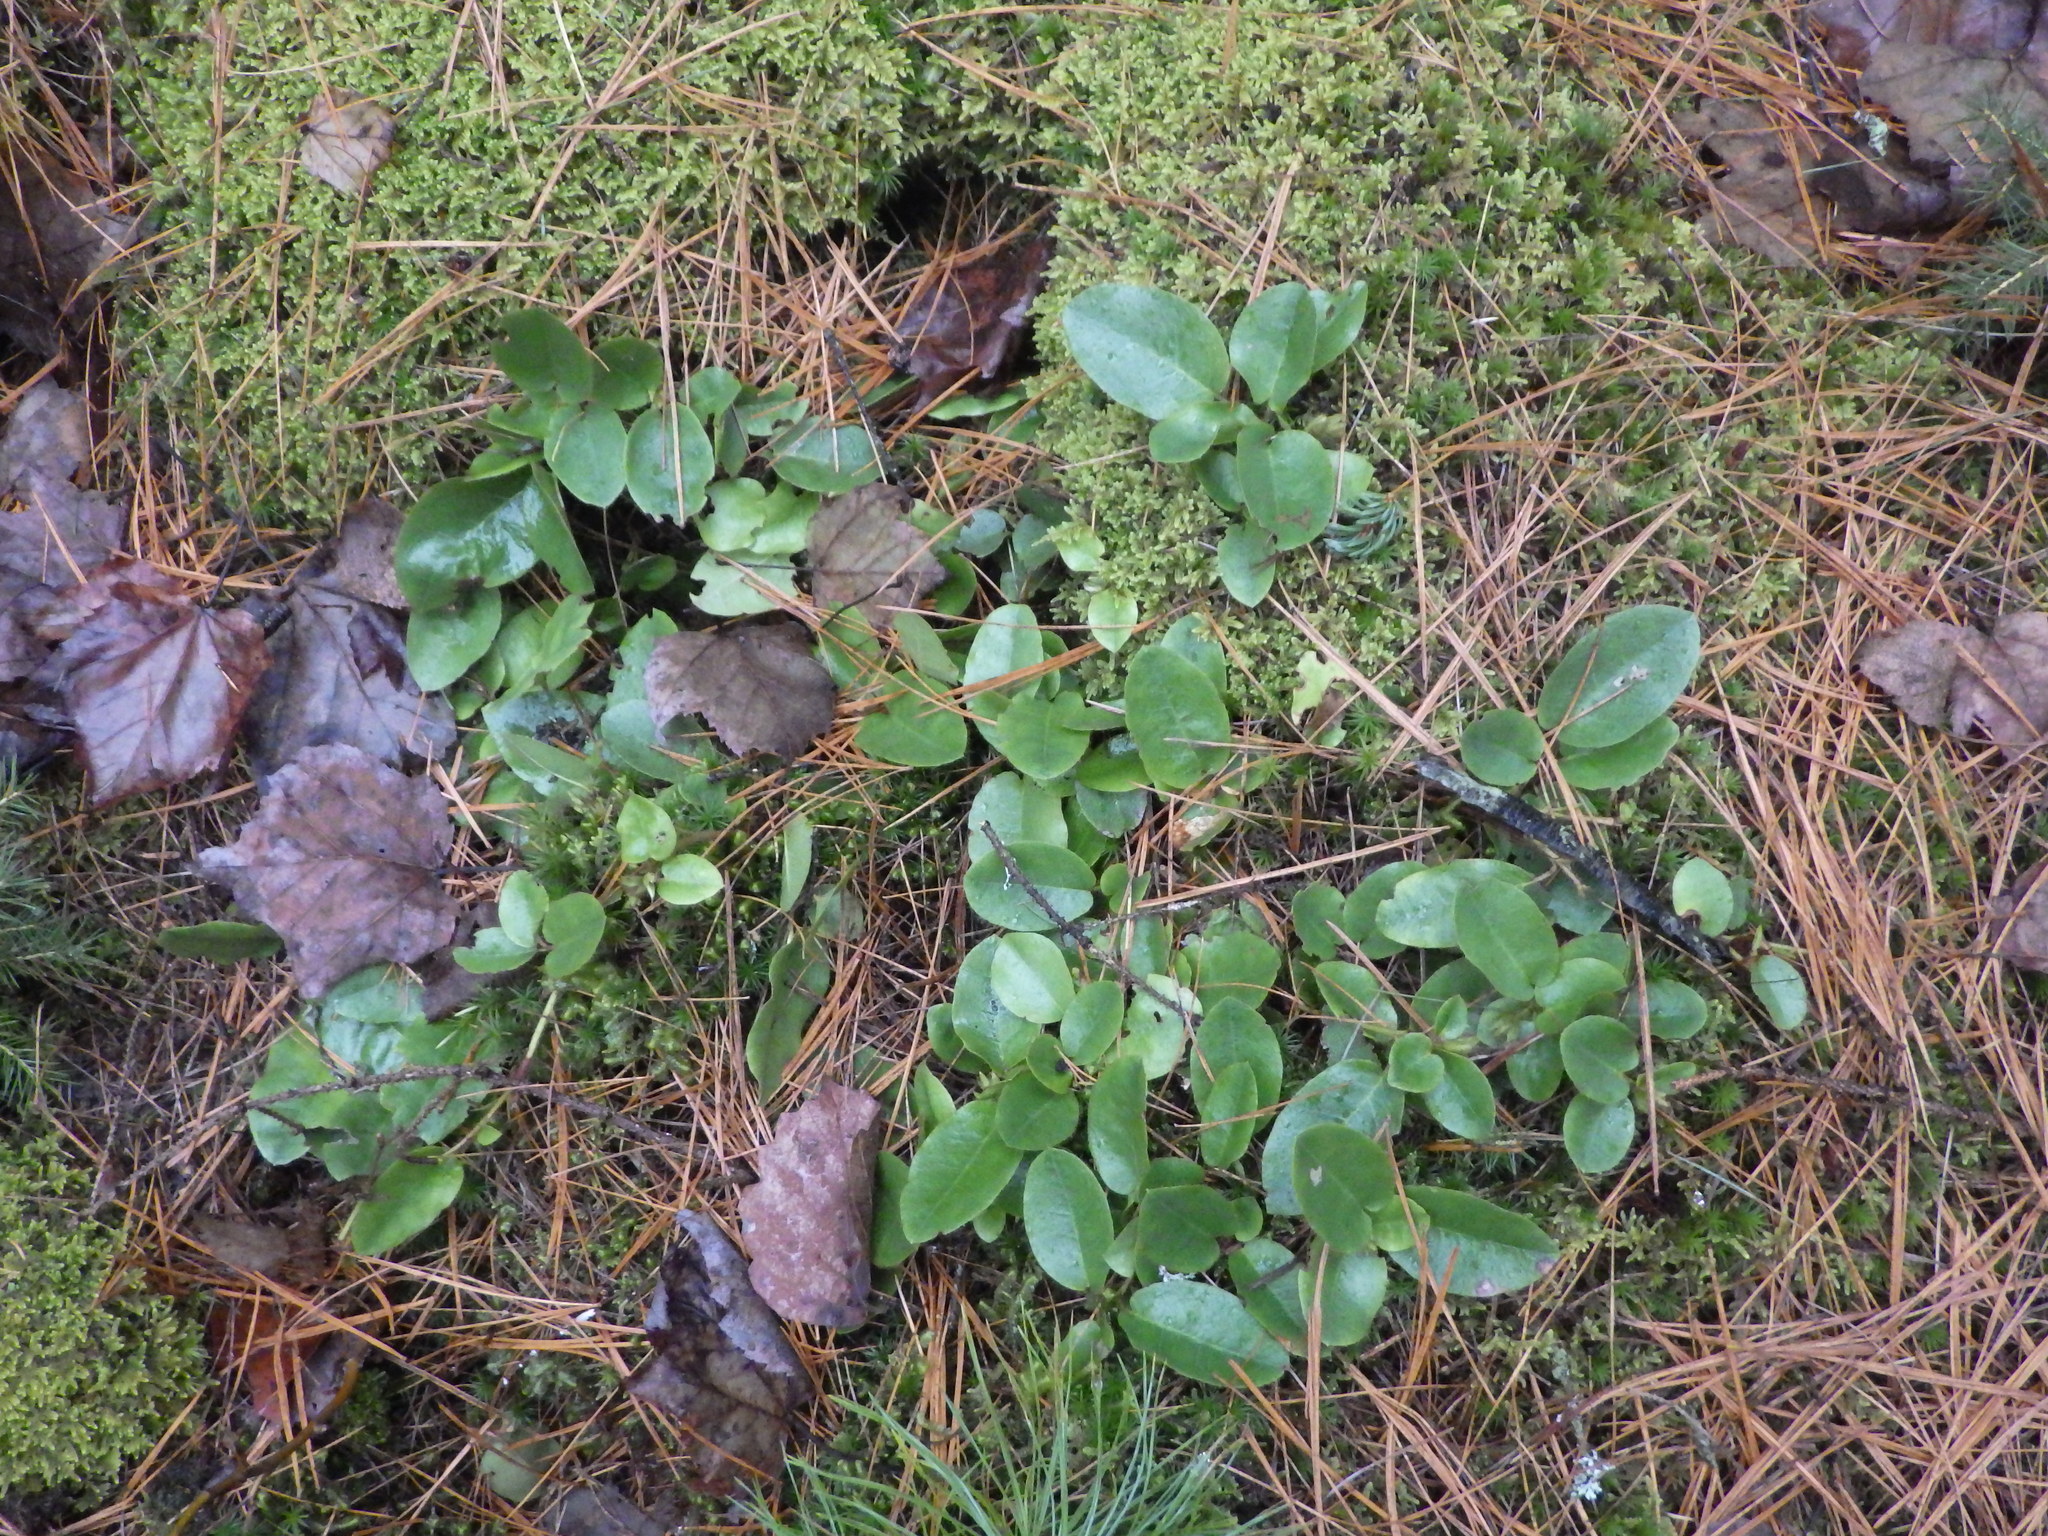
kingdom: Plantae
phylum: Tracheophyta
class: Magnoliopsida
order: Ericales
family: Ericaceae
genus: Epigaea
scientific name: Epigaea repens
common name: Gravelroot
